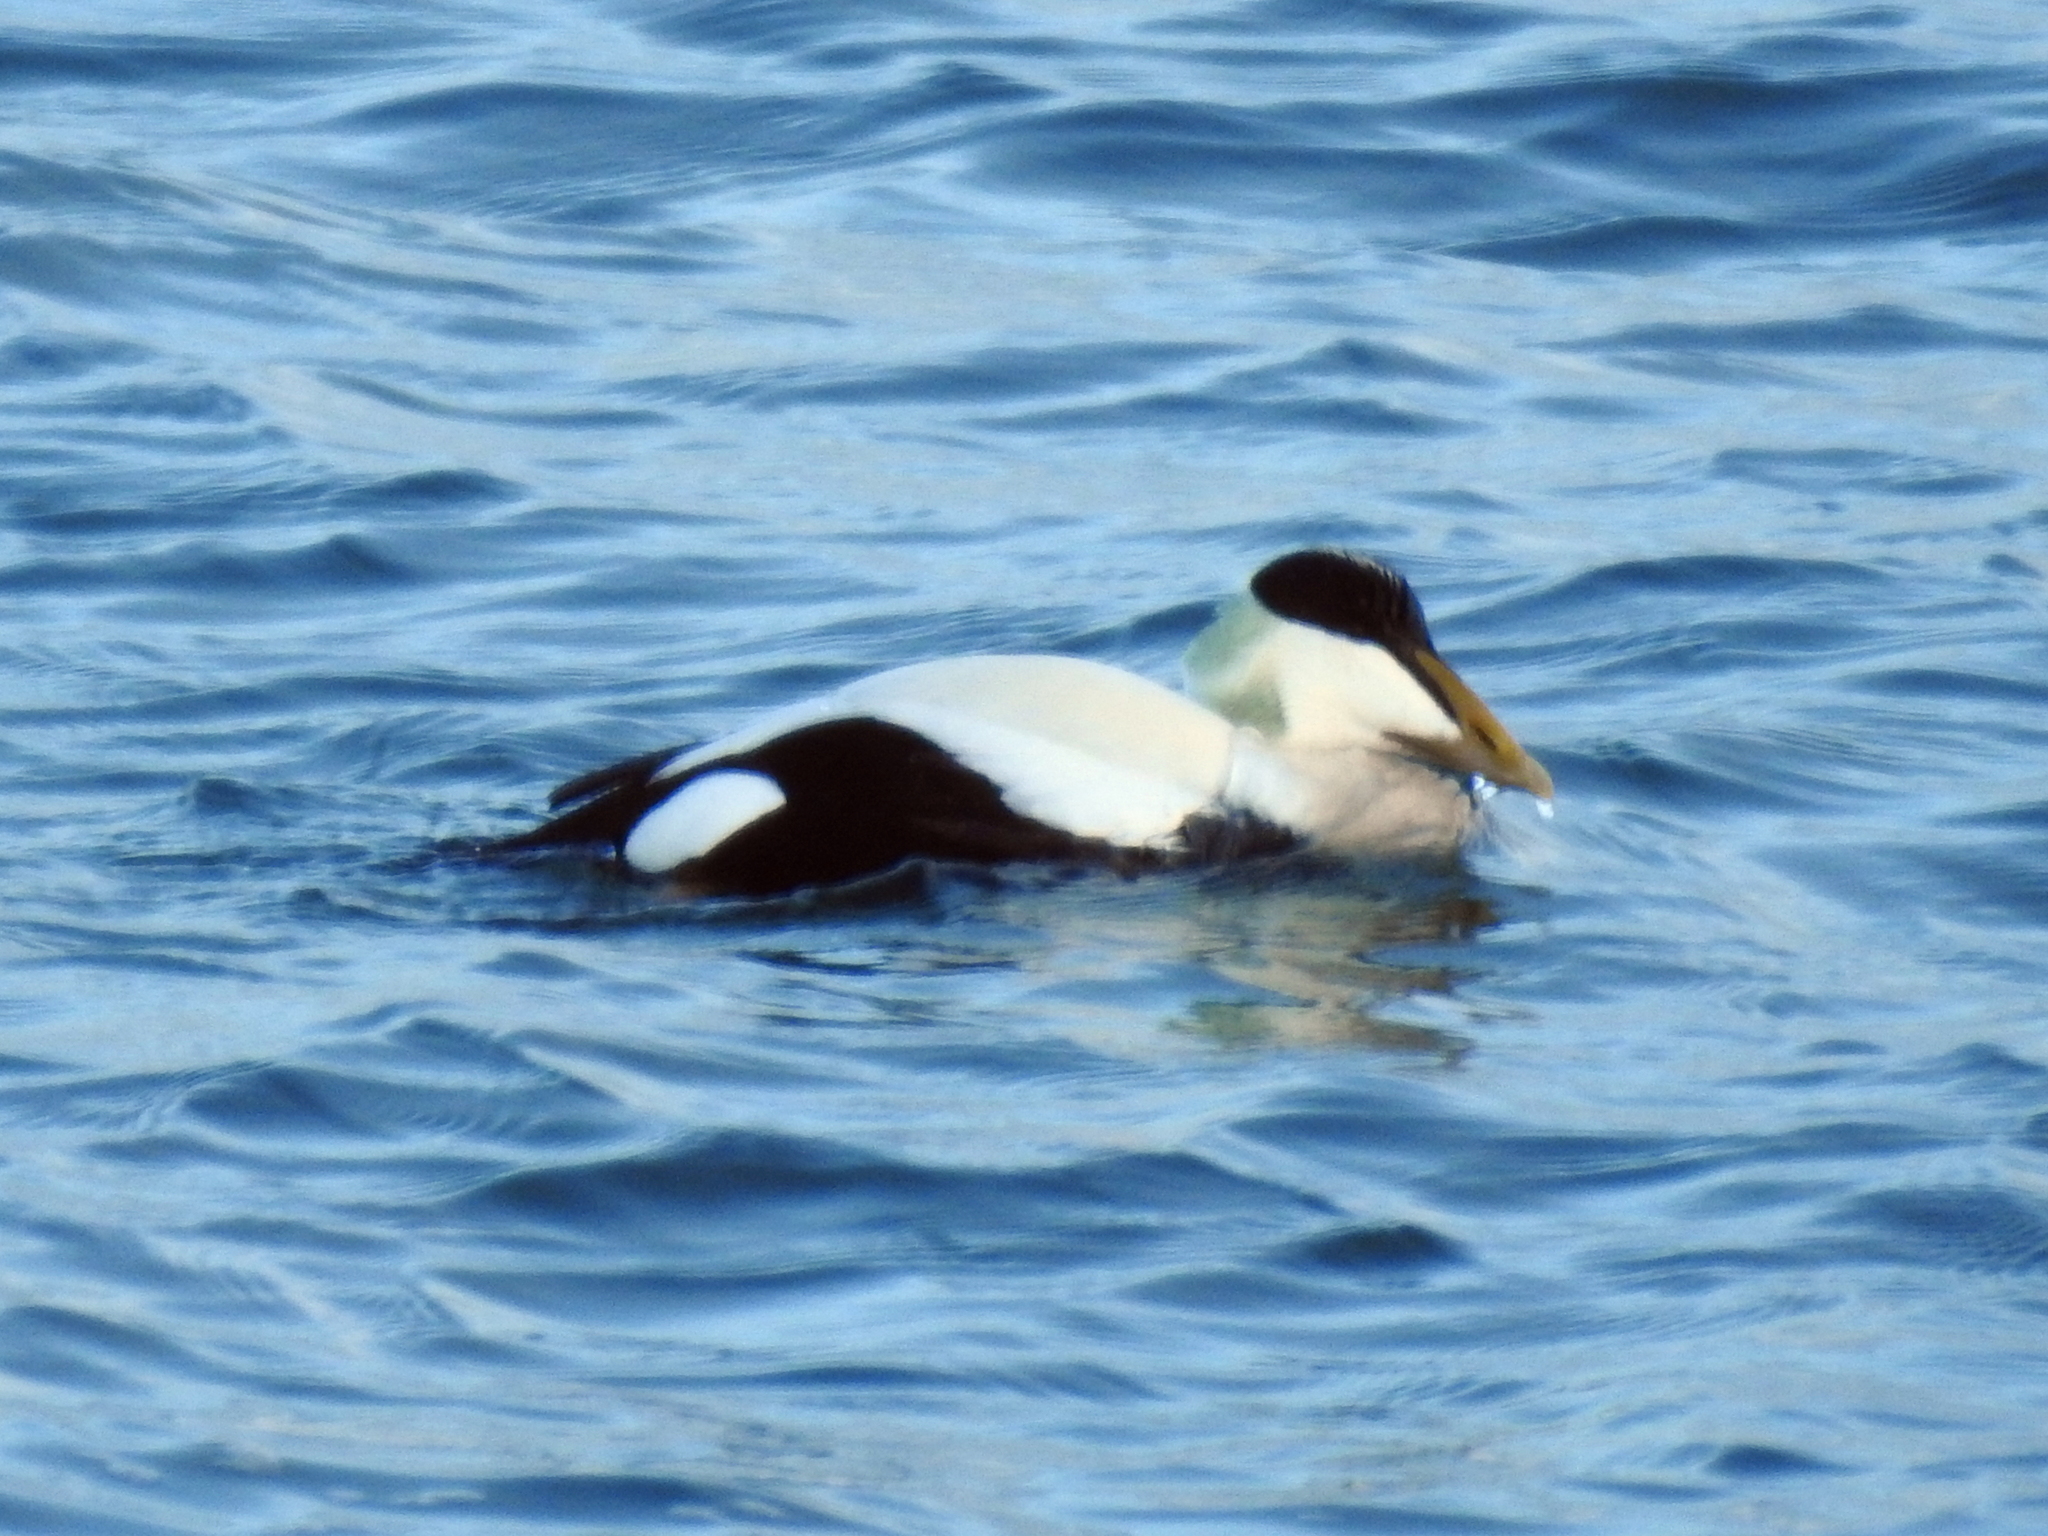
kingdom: Animalia
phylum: Chordata
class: Aves
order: Anseriformes
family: Anatidae
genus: Somateria
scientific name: Somateria mollissima
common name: Common eider
